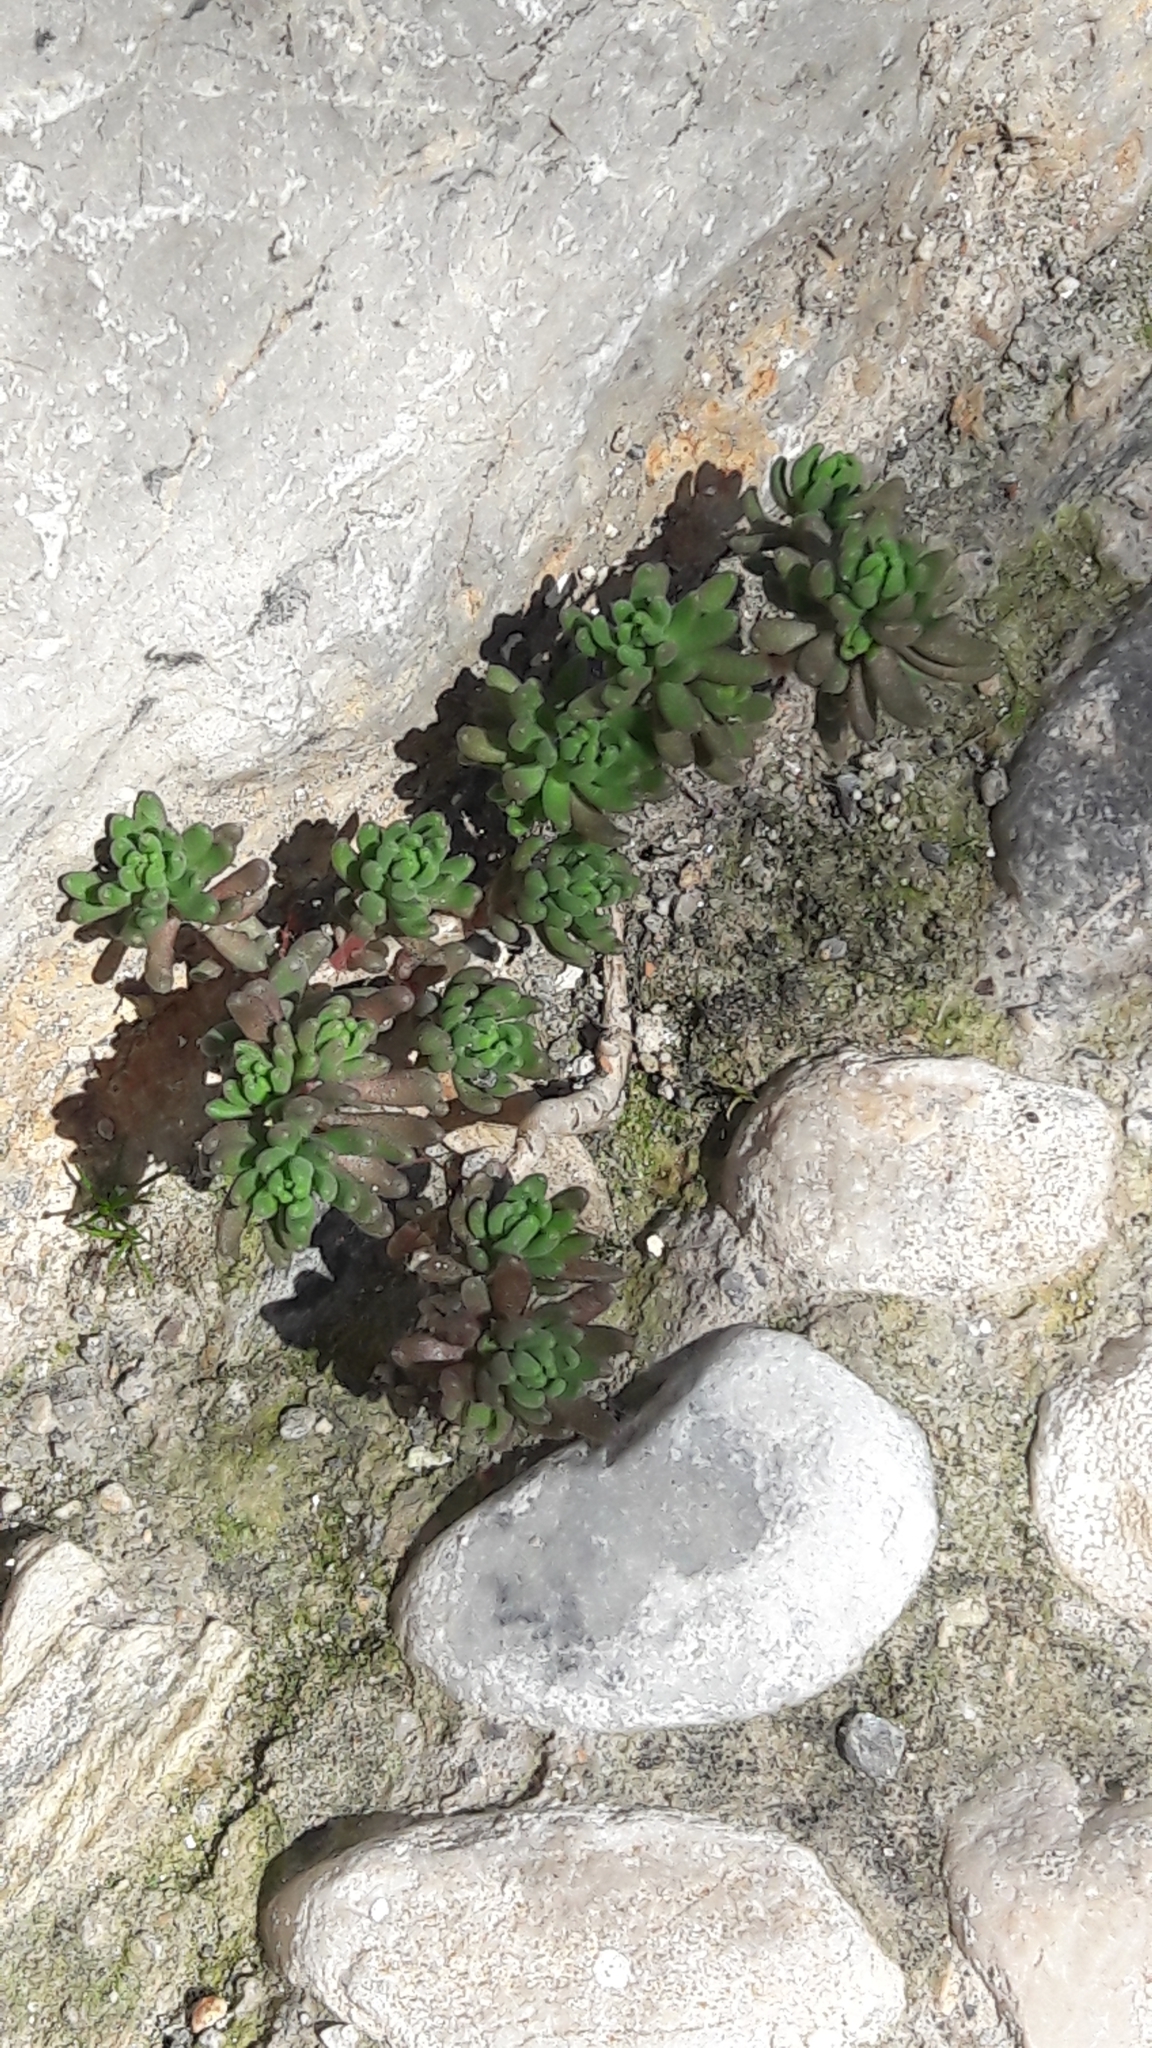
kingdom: Plantae
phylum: Tracheophyta
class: Magnoliopsida
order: Saxifragales
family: Crassulaceae
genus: Sedum
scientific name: Sedum album
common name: White stonecrop
